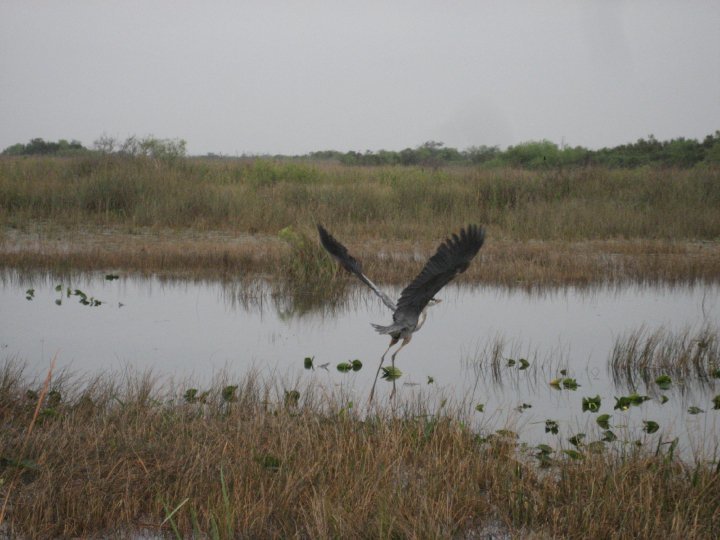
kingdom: Animalia
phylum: Chordata
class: Aves
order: Pelecaniformes
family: Ardeidae
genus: Ardea
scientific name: Ardea herodias
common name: Great blue heron
